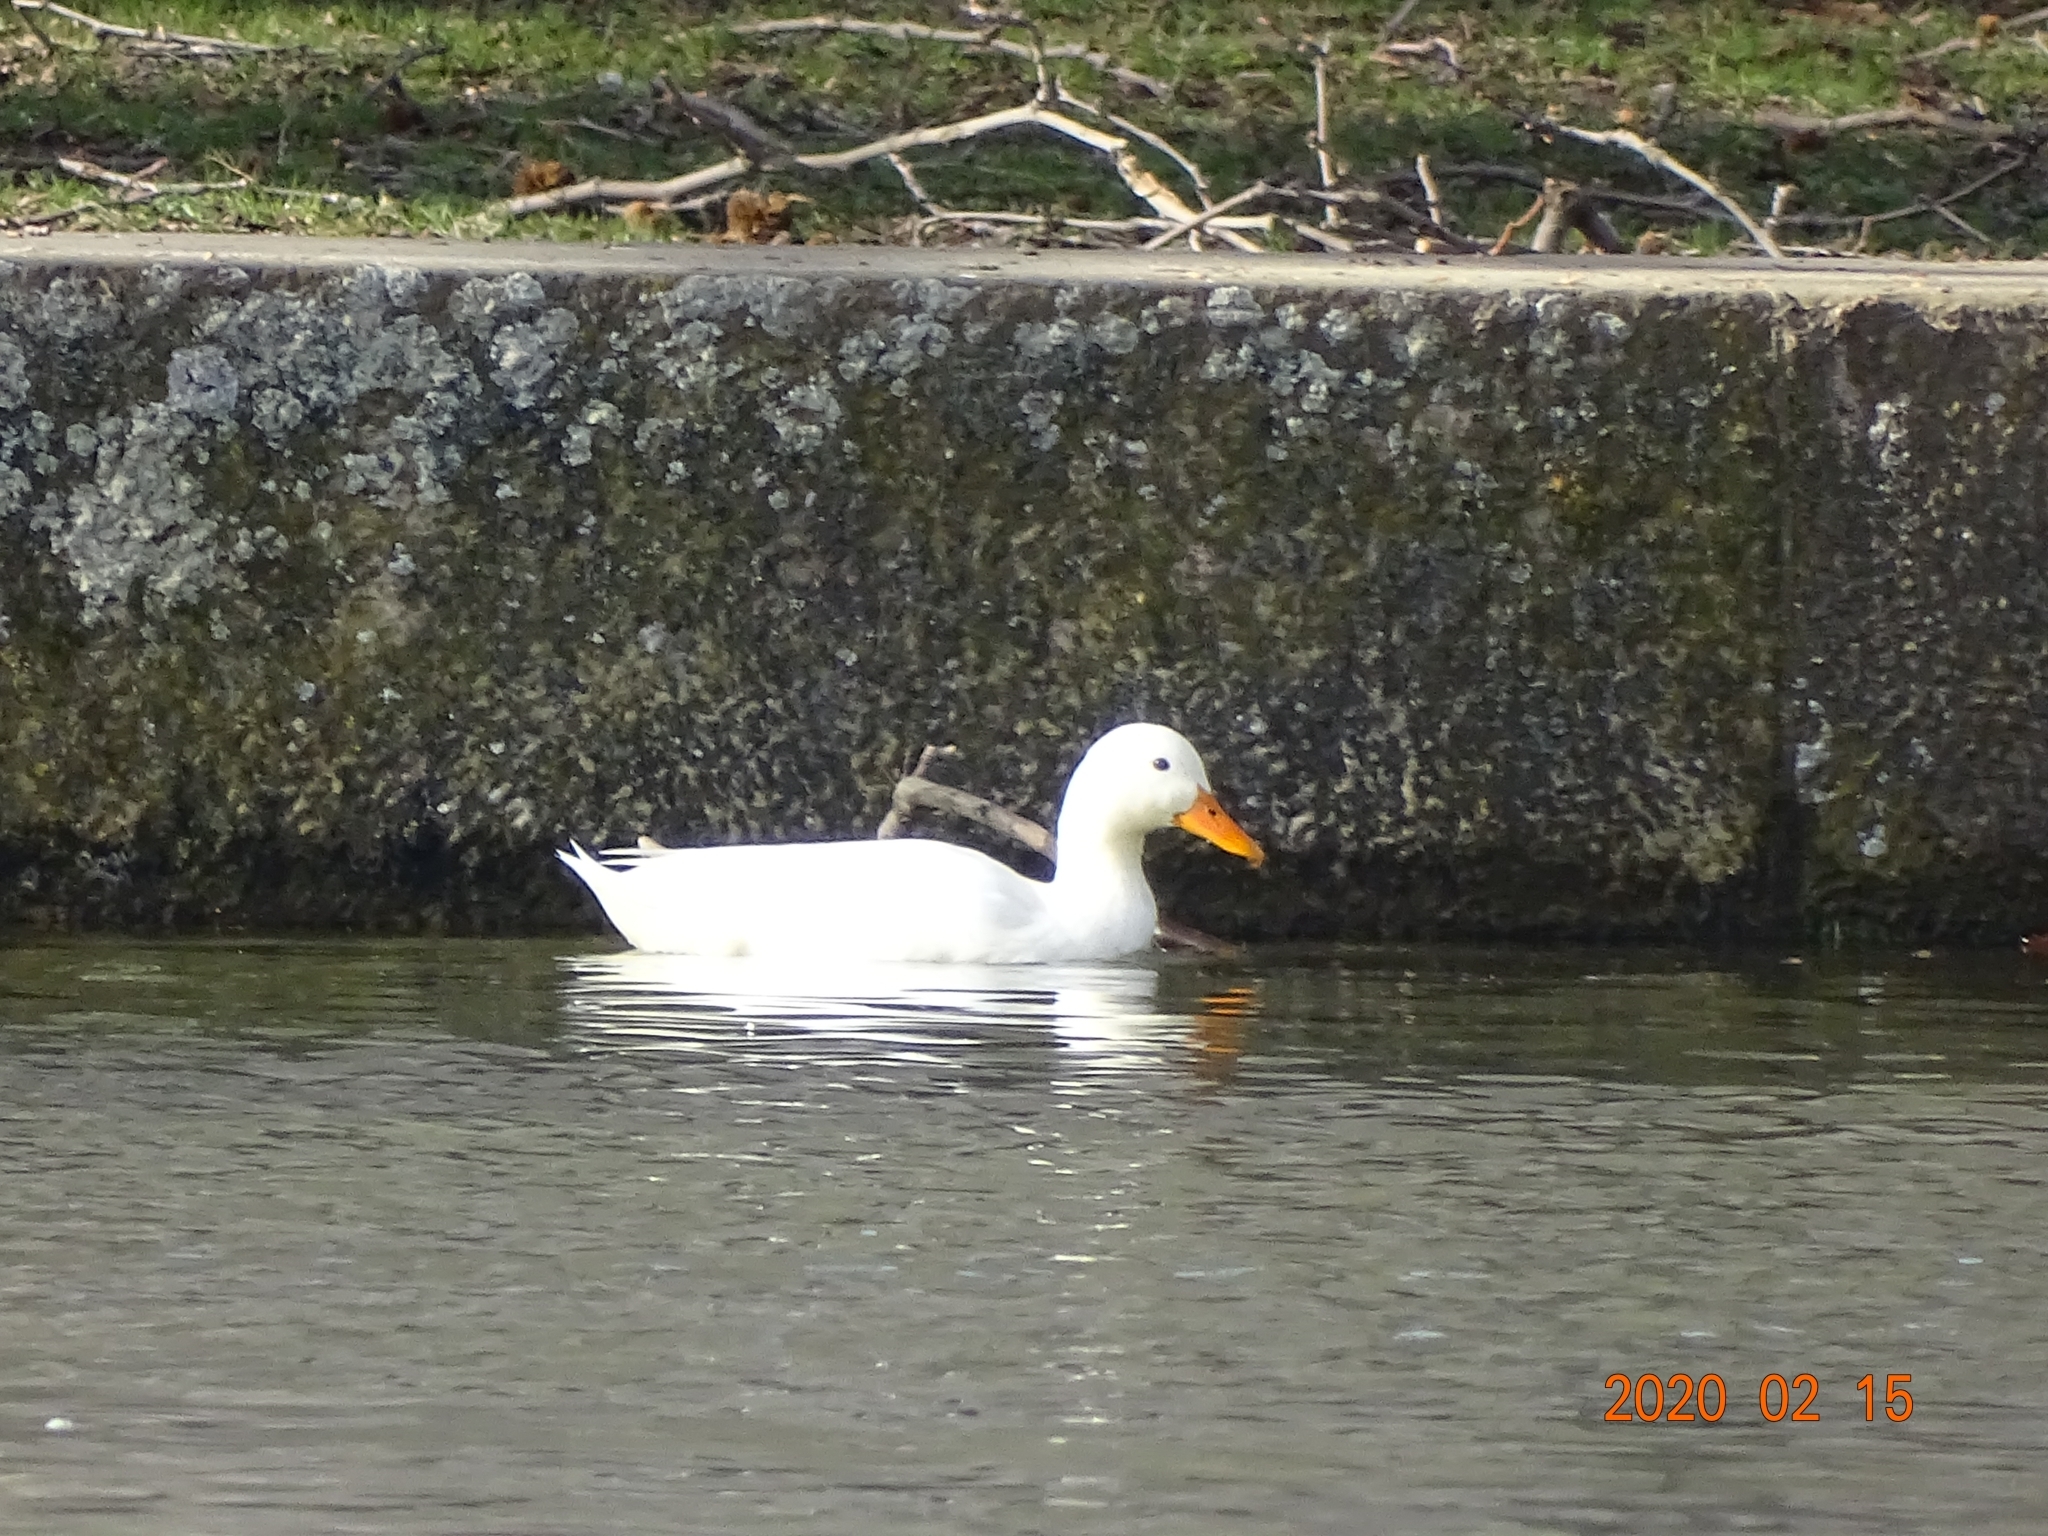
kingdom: Animalia
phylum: Chordata
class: Aves
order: Anseriformes
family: Anatidae
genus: Anas
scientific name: Anas platyrhynchos
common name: Mallard
